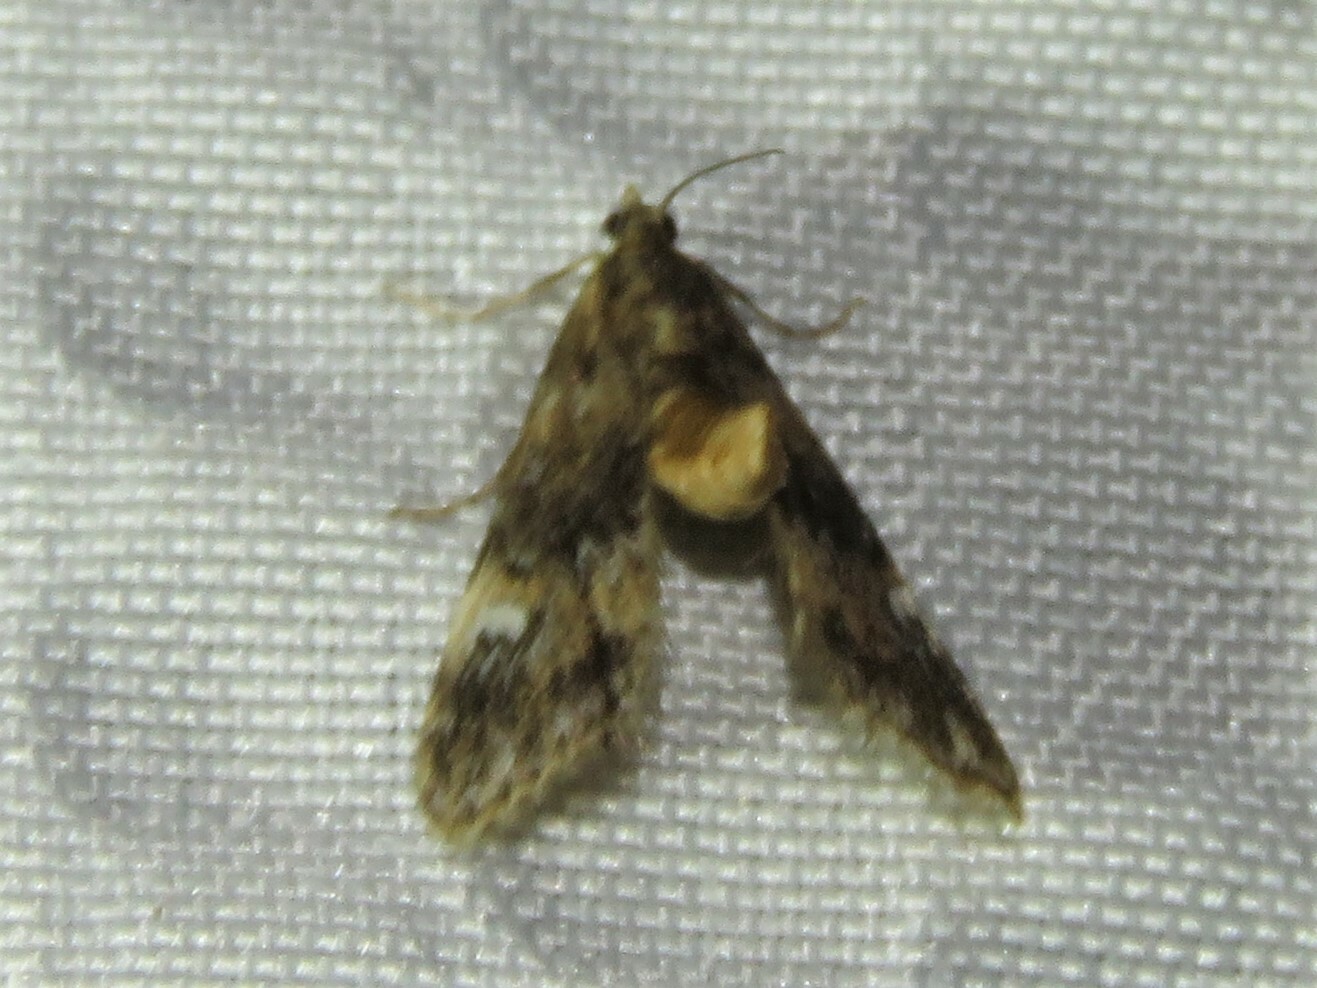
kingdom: Animalia
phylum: Arthropoda
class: Insecta
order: Lepidoptera
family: Crambidae
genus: Elophila
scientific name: Elophila obliteralis
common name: Waterlily leafcutter moth
